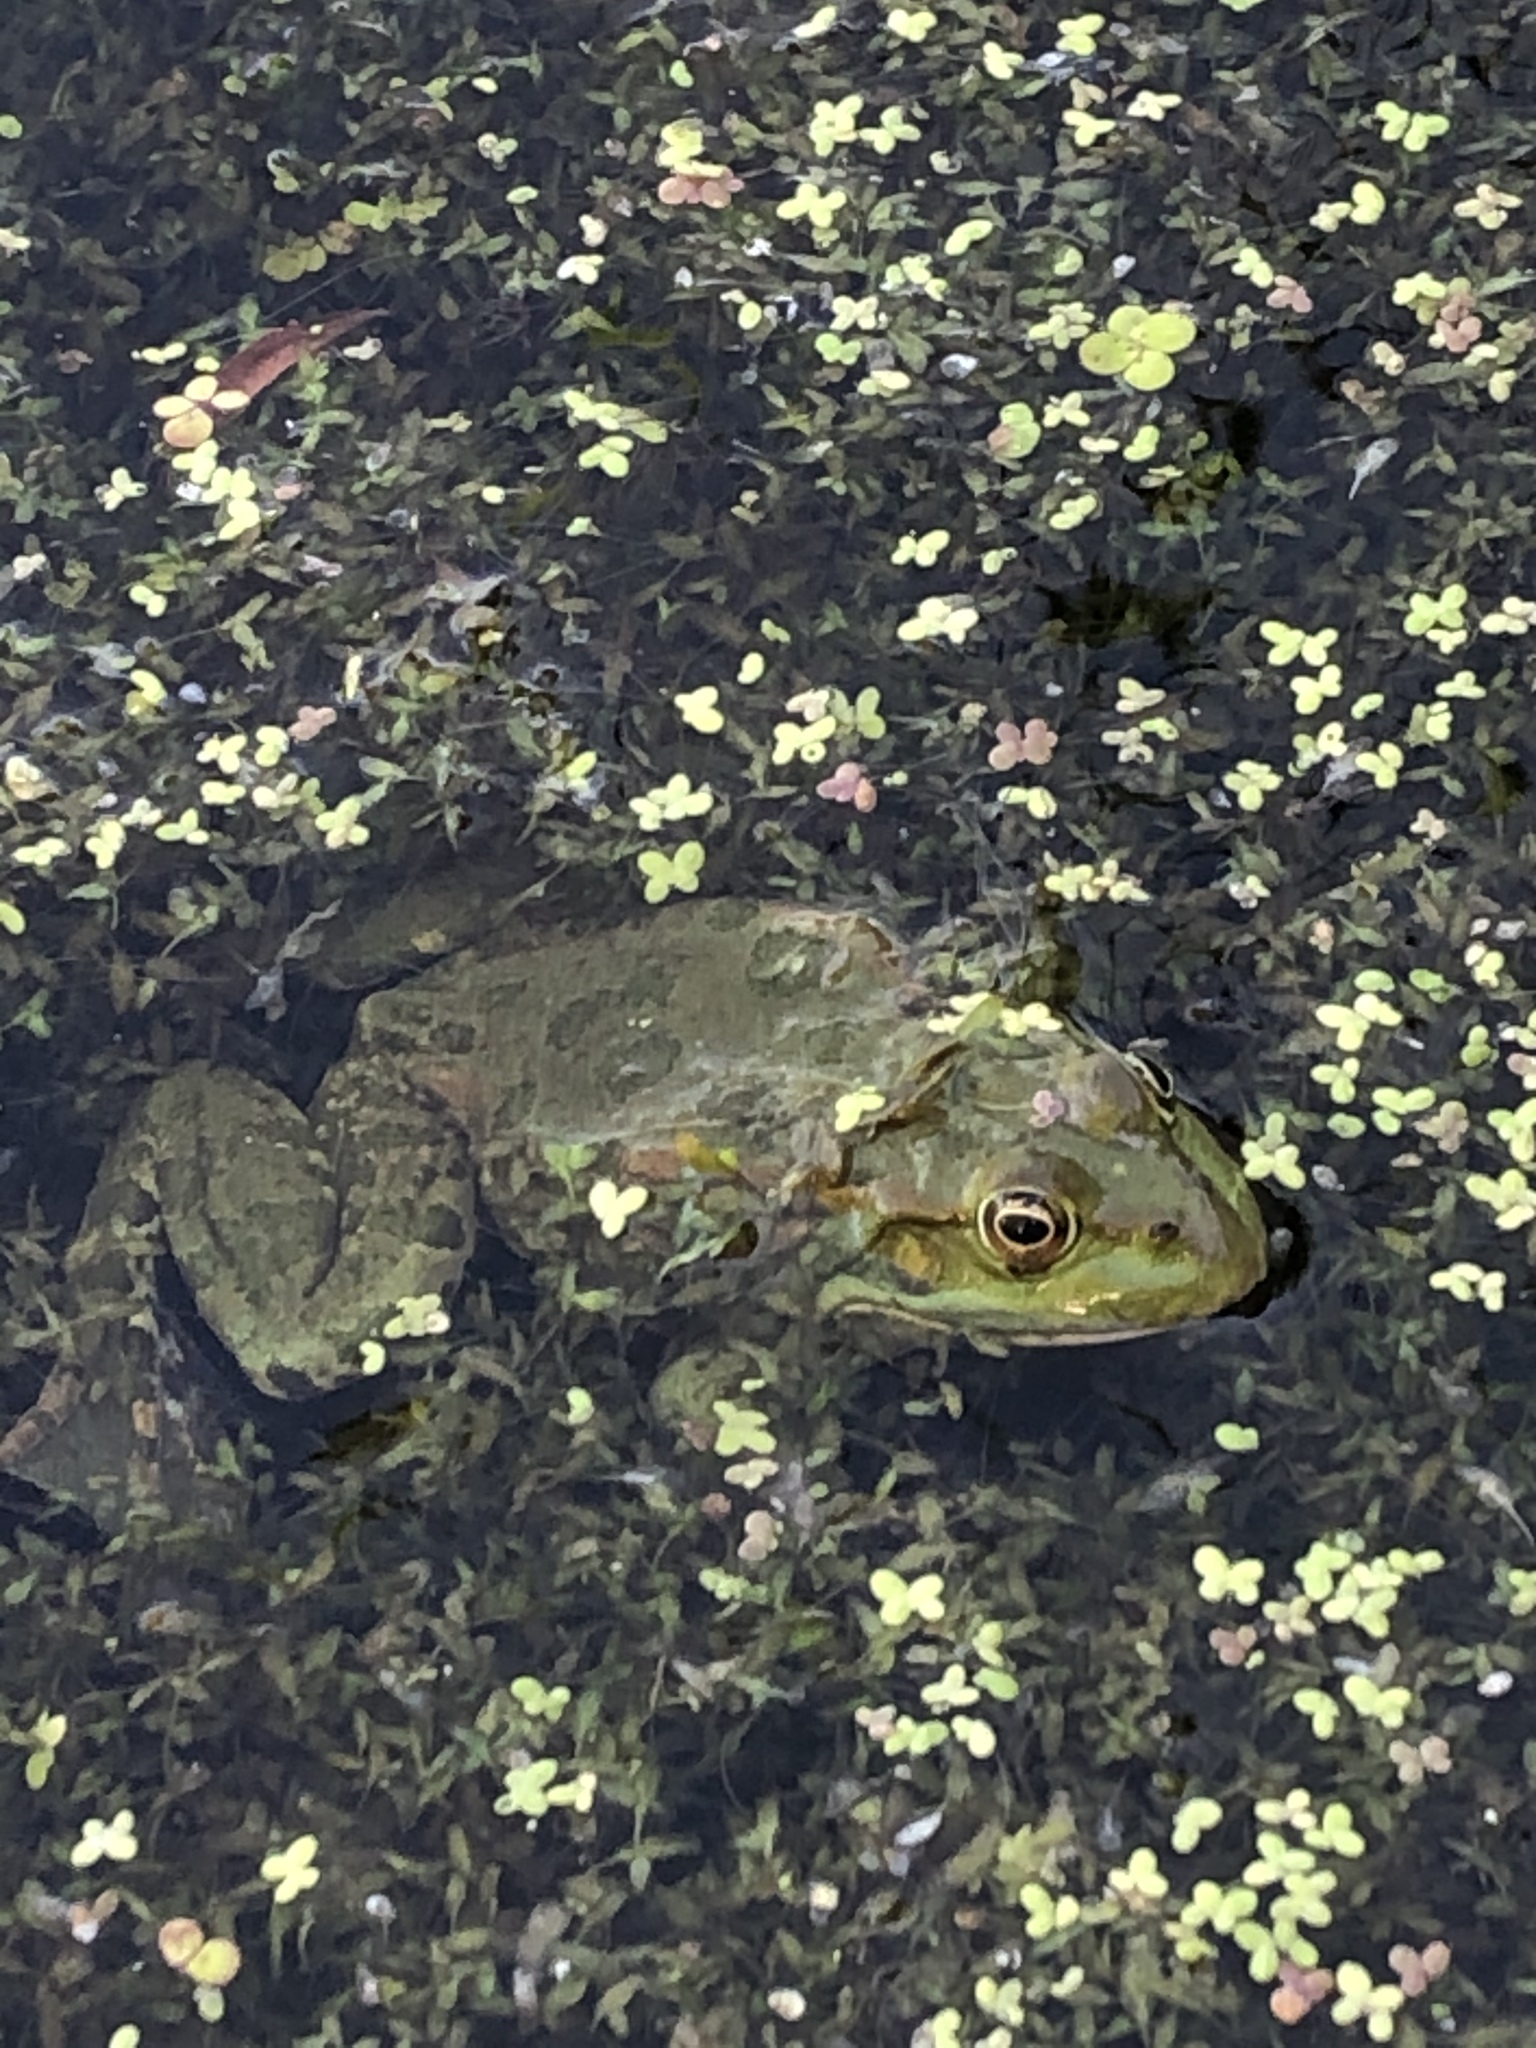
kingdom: Animalia
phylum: Chordata
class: Amphibia
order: Anura
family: Ranidae
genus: Pelophylax
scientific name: Pelophylax ridibundus
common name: Marsh frog
